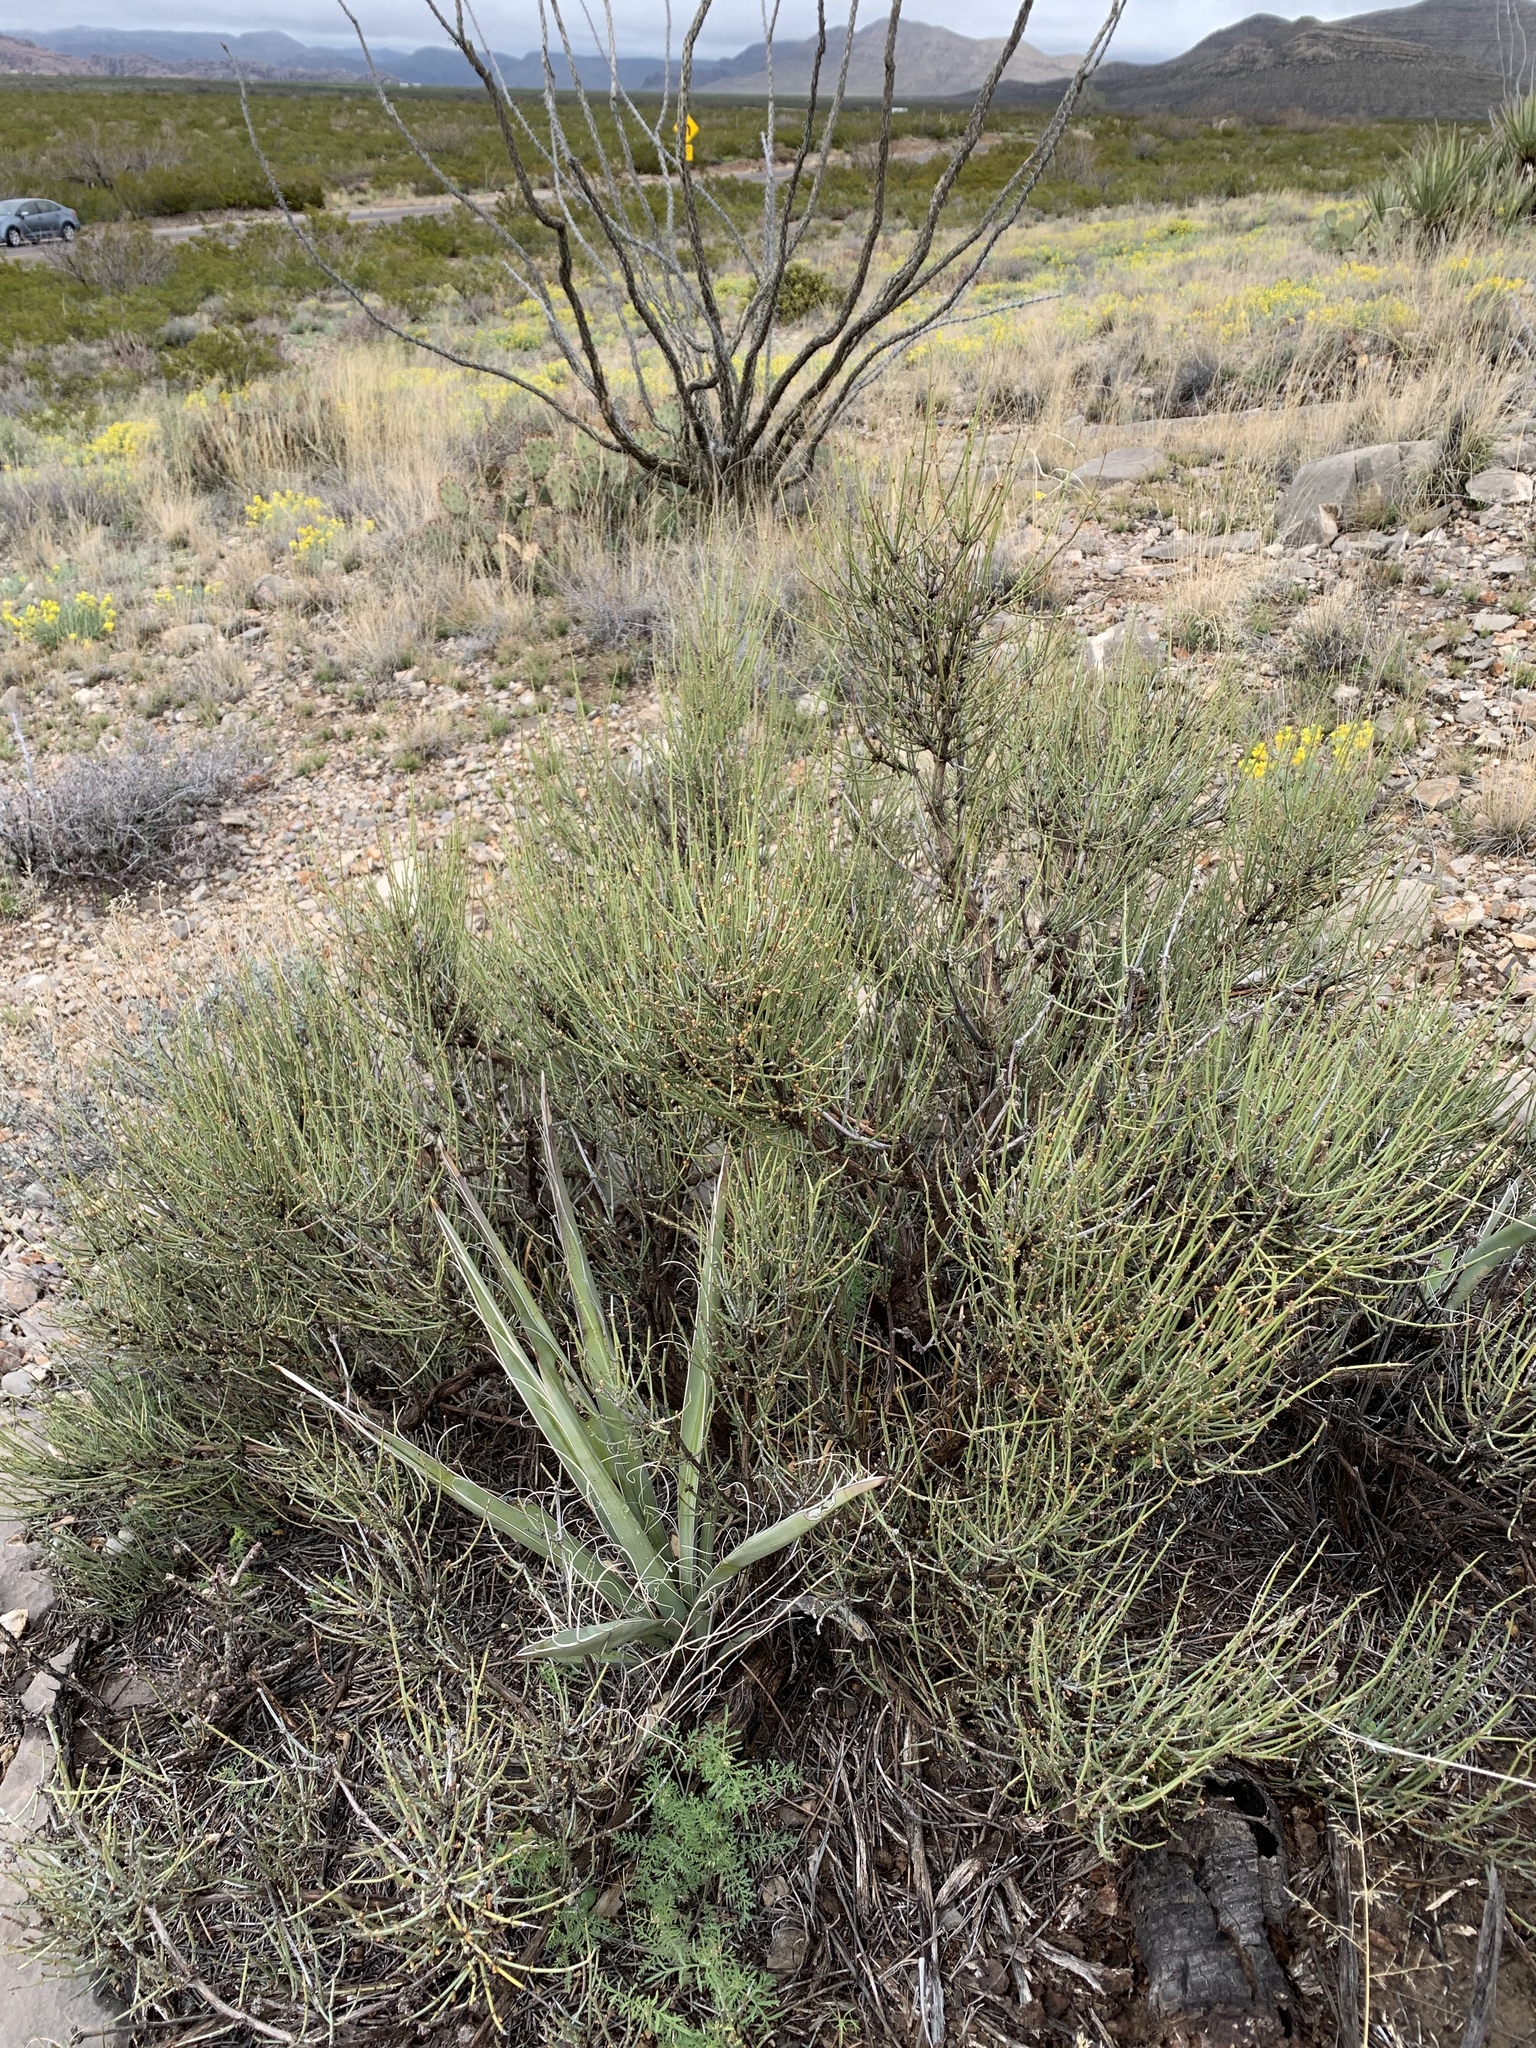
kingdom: Plantae
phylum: Tracheophyta
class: Gnetopsida
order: Ephedrales
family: Ephedraceae
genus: Ephedra
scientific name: Ephedra viridis
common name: Green ephedra
